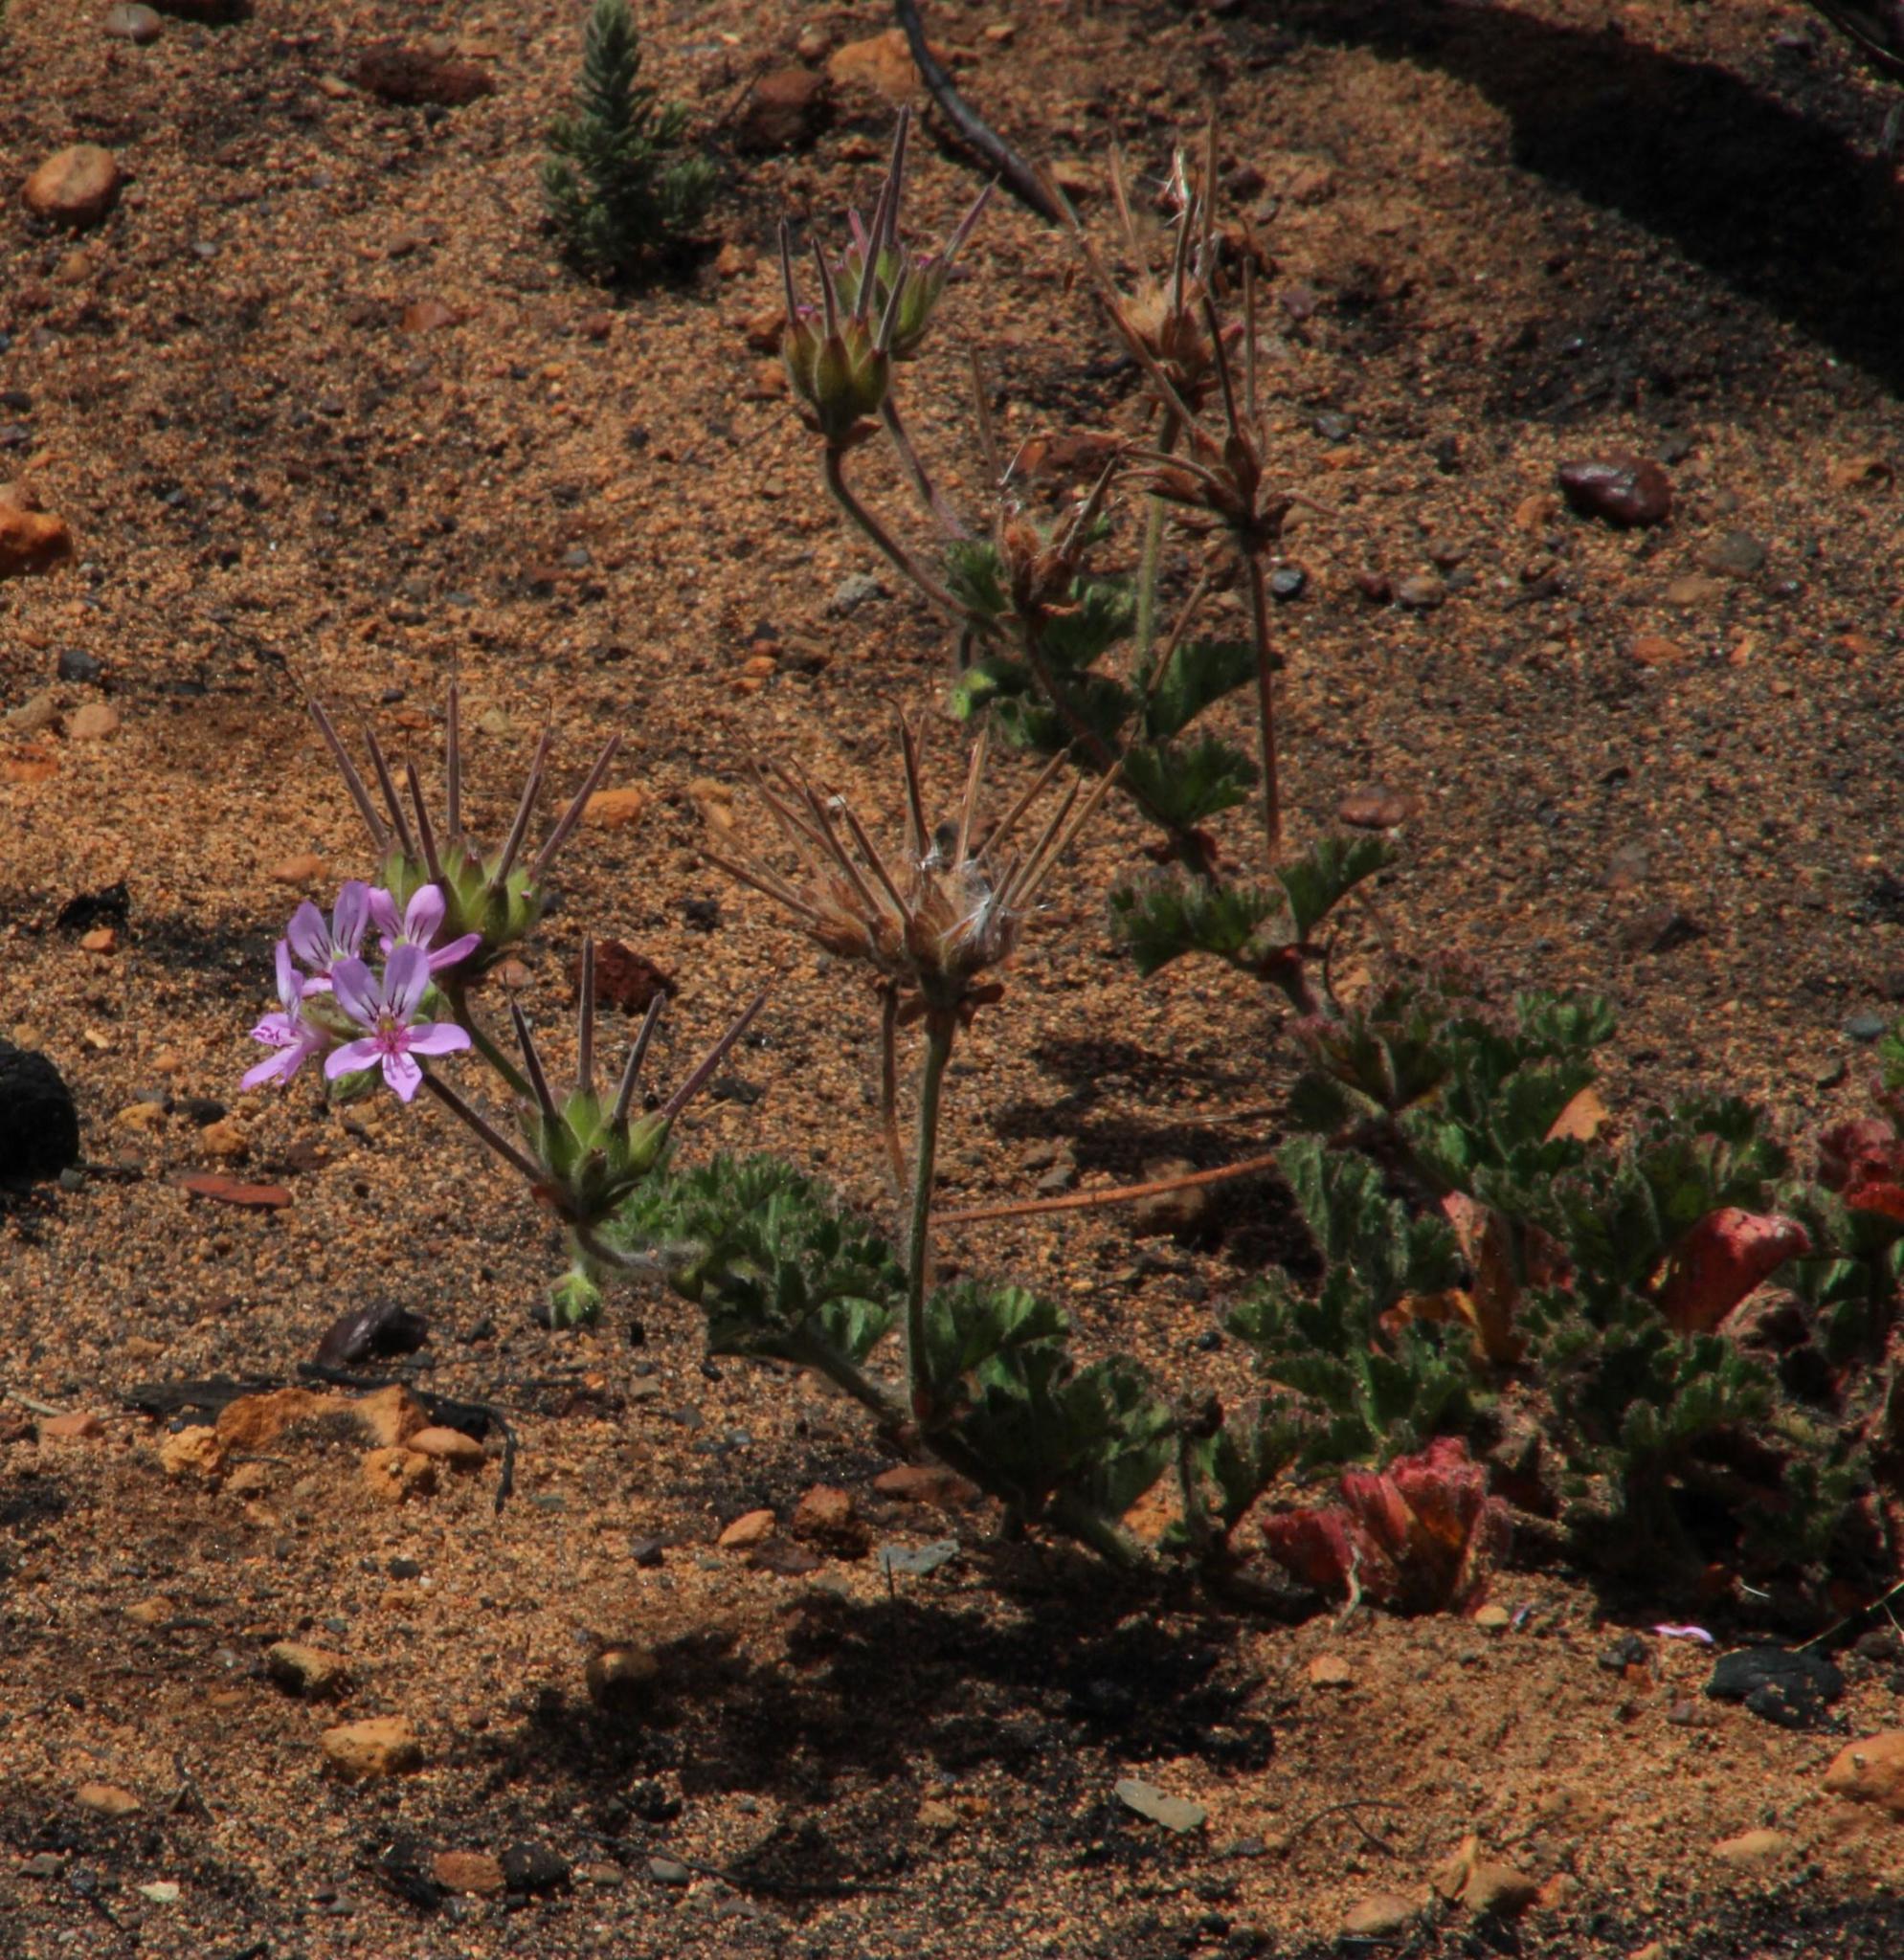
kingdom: Plantae
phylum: Tracheophyta
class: Magnoliopsida
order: Geraniales
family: Geraniaceae
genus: Pelargonium
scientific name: Pelargonium capitatum
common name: Rose scented geranium
